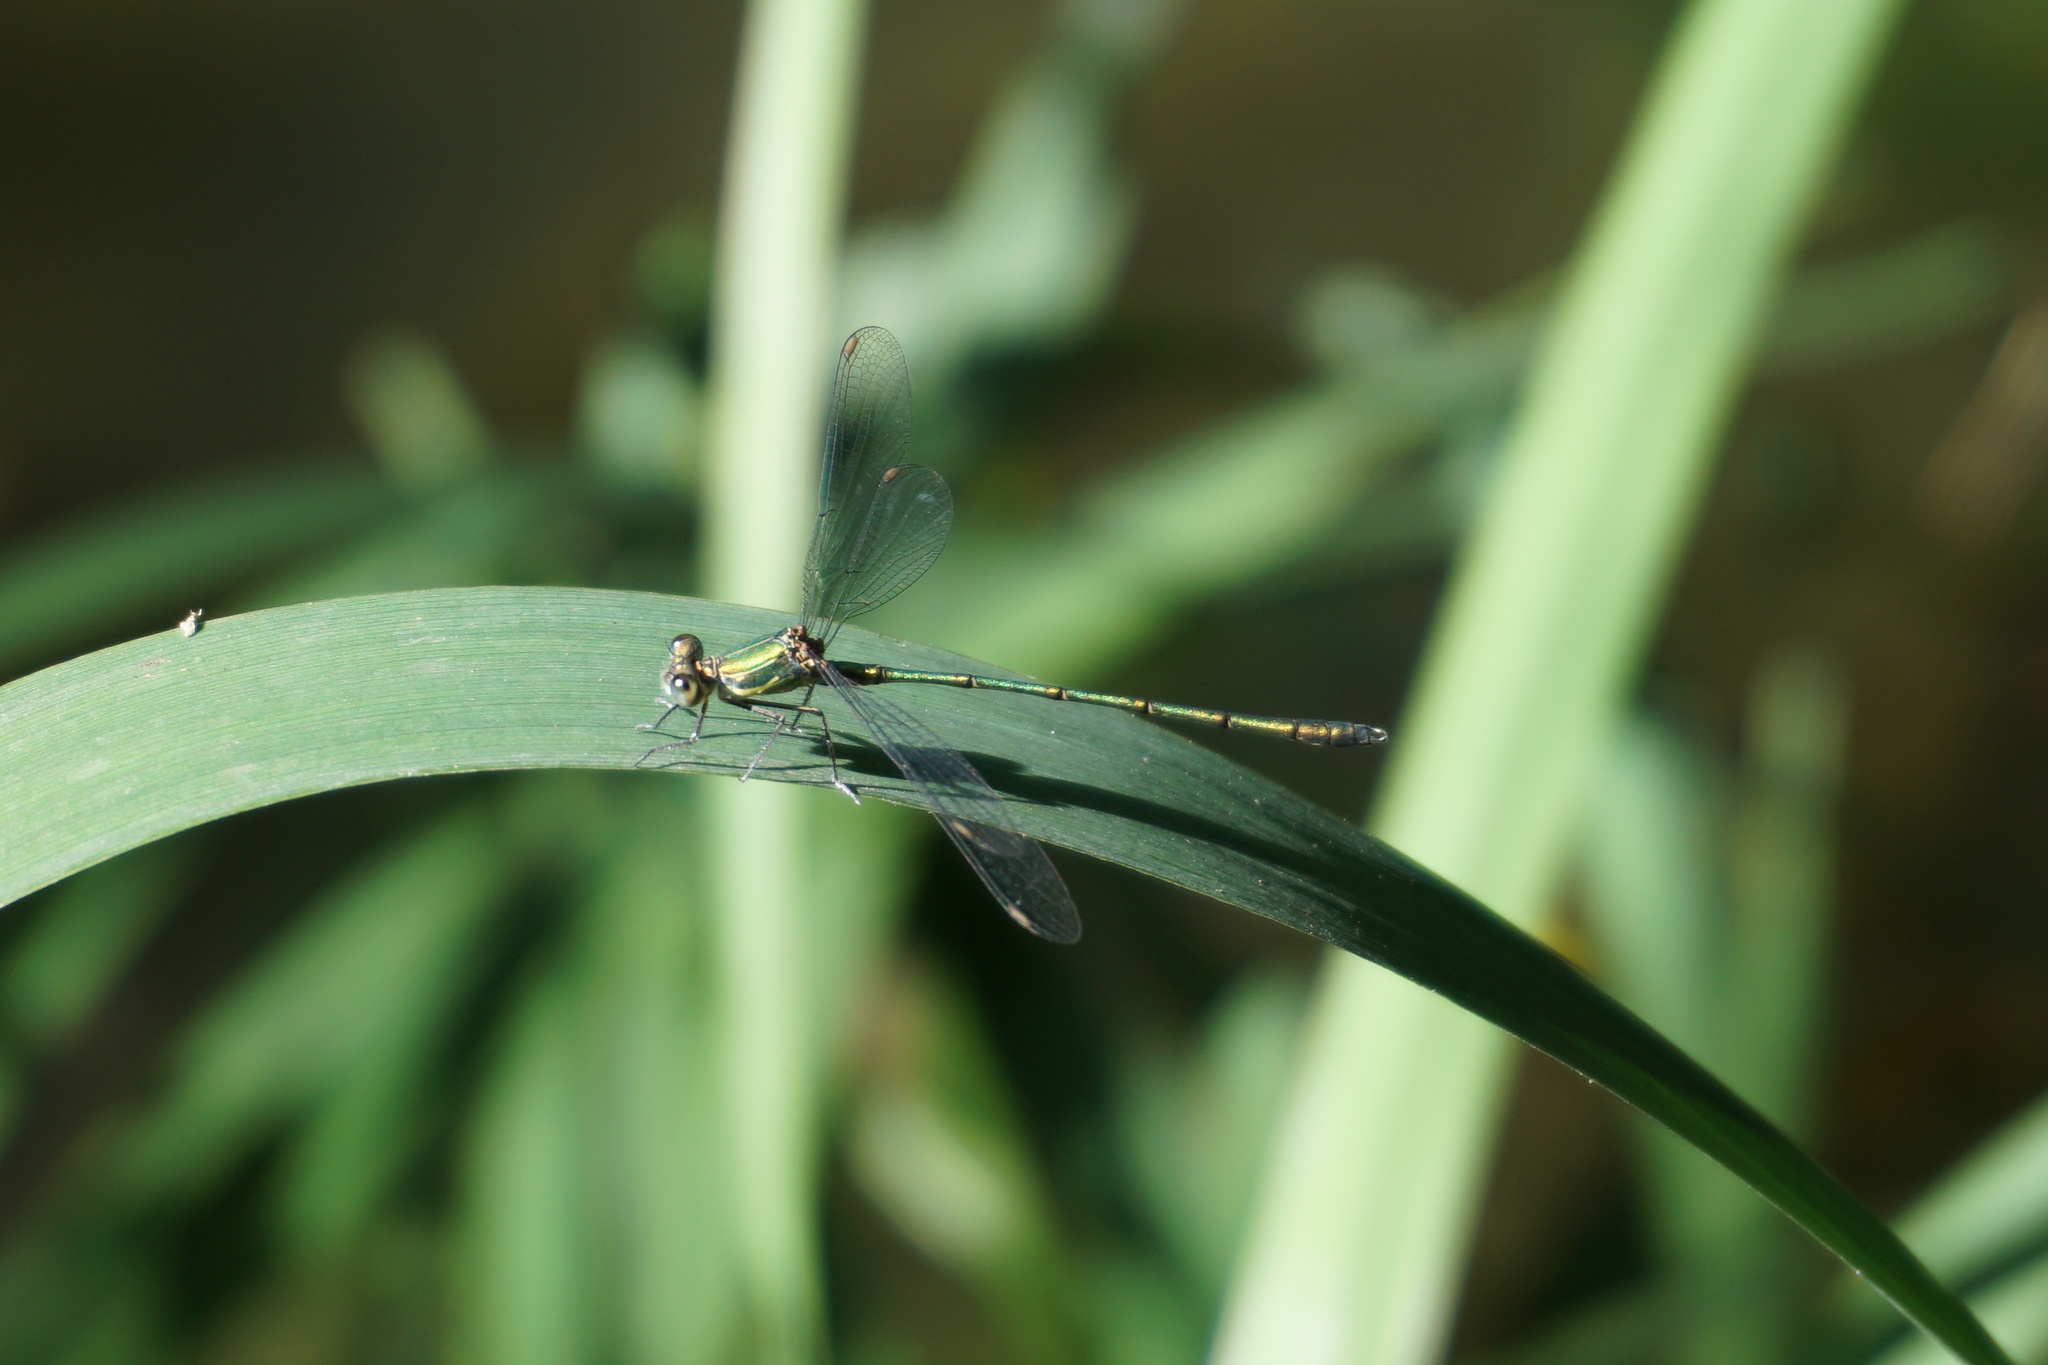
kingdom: Animalia
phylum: Arthropoda
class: Insecta
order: Odonata
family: Lestidae
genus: Chalcolestes
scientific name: Chalcolestes viridis
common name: Green emerald damselfly
